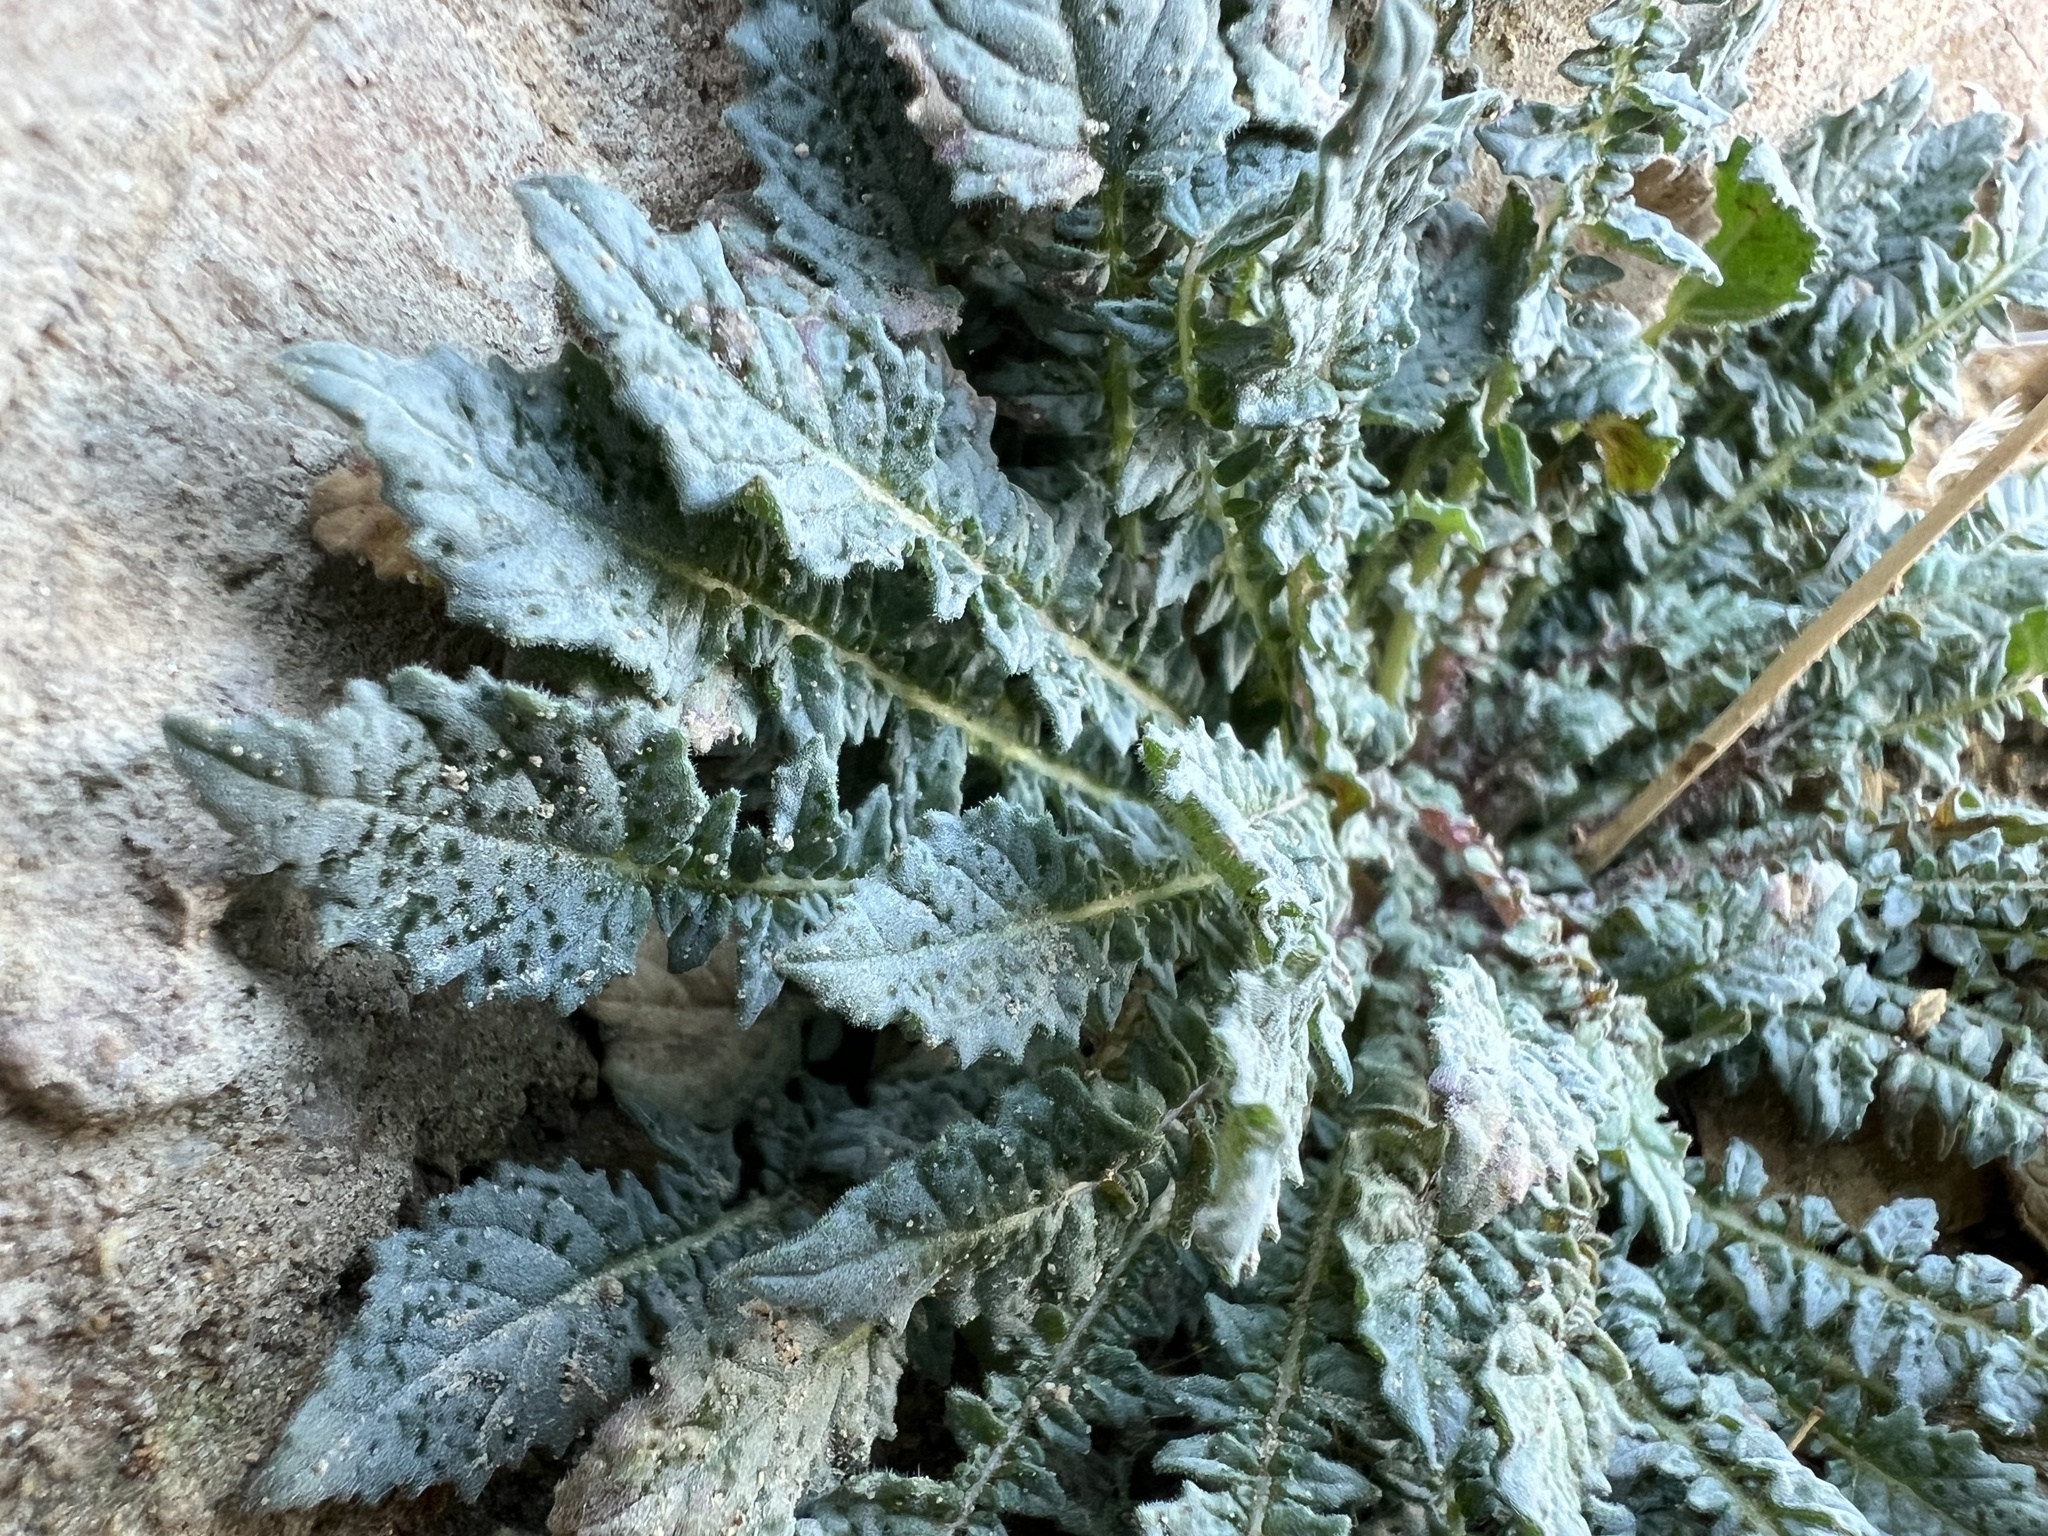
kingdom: Plantae
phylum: Tracheophyta
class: Magnoliopsida
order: Myrtales
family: Onagraceae
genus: Chylismia
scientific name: Chylismia walkeri
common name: Walker's suncup
